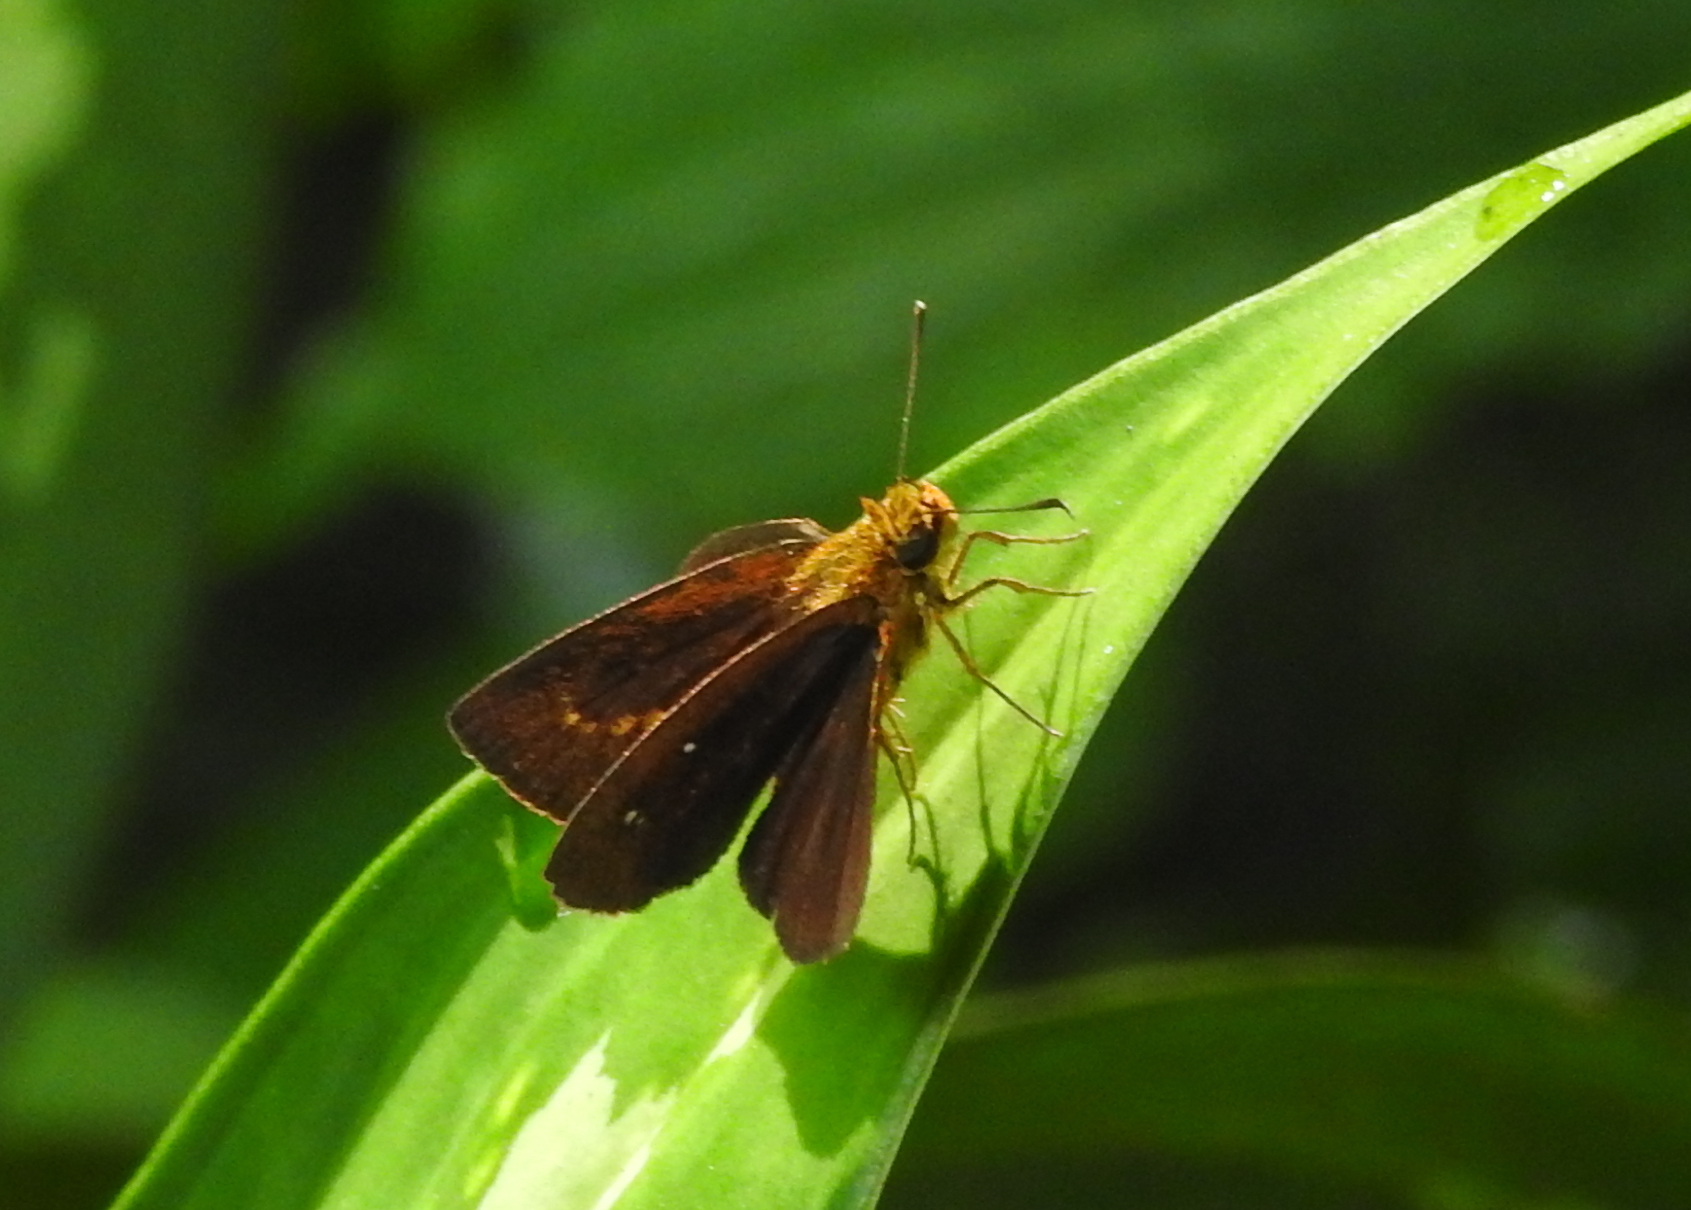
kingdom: Animalia
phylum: Arthropoda
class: Insecta
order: Lepidoptera
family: Hesperiidae
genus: Iambrix
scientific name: Iambrix salsala
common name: Chestnut bob
